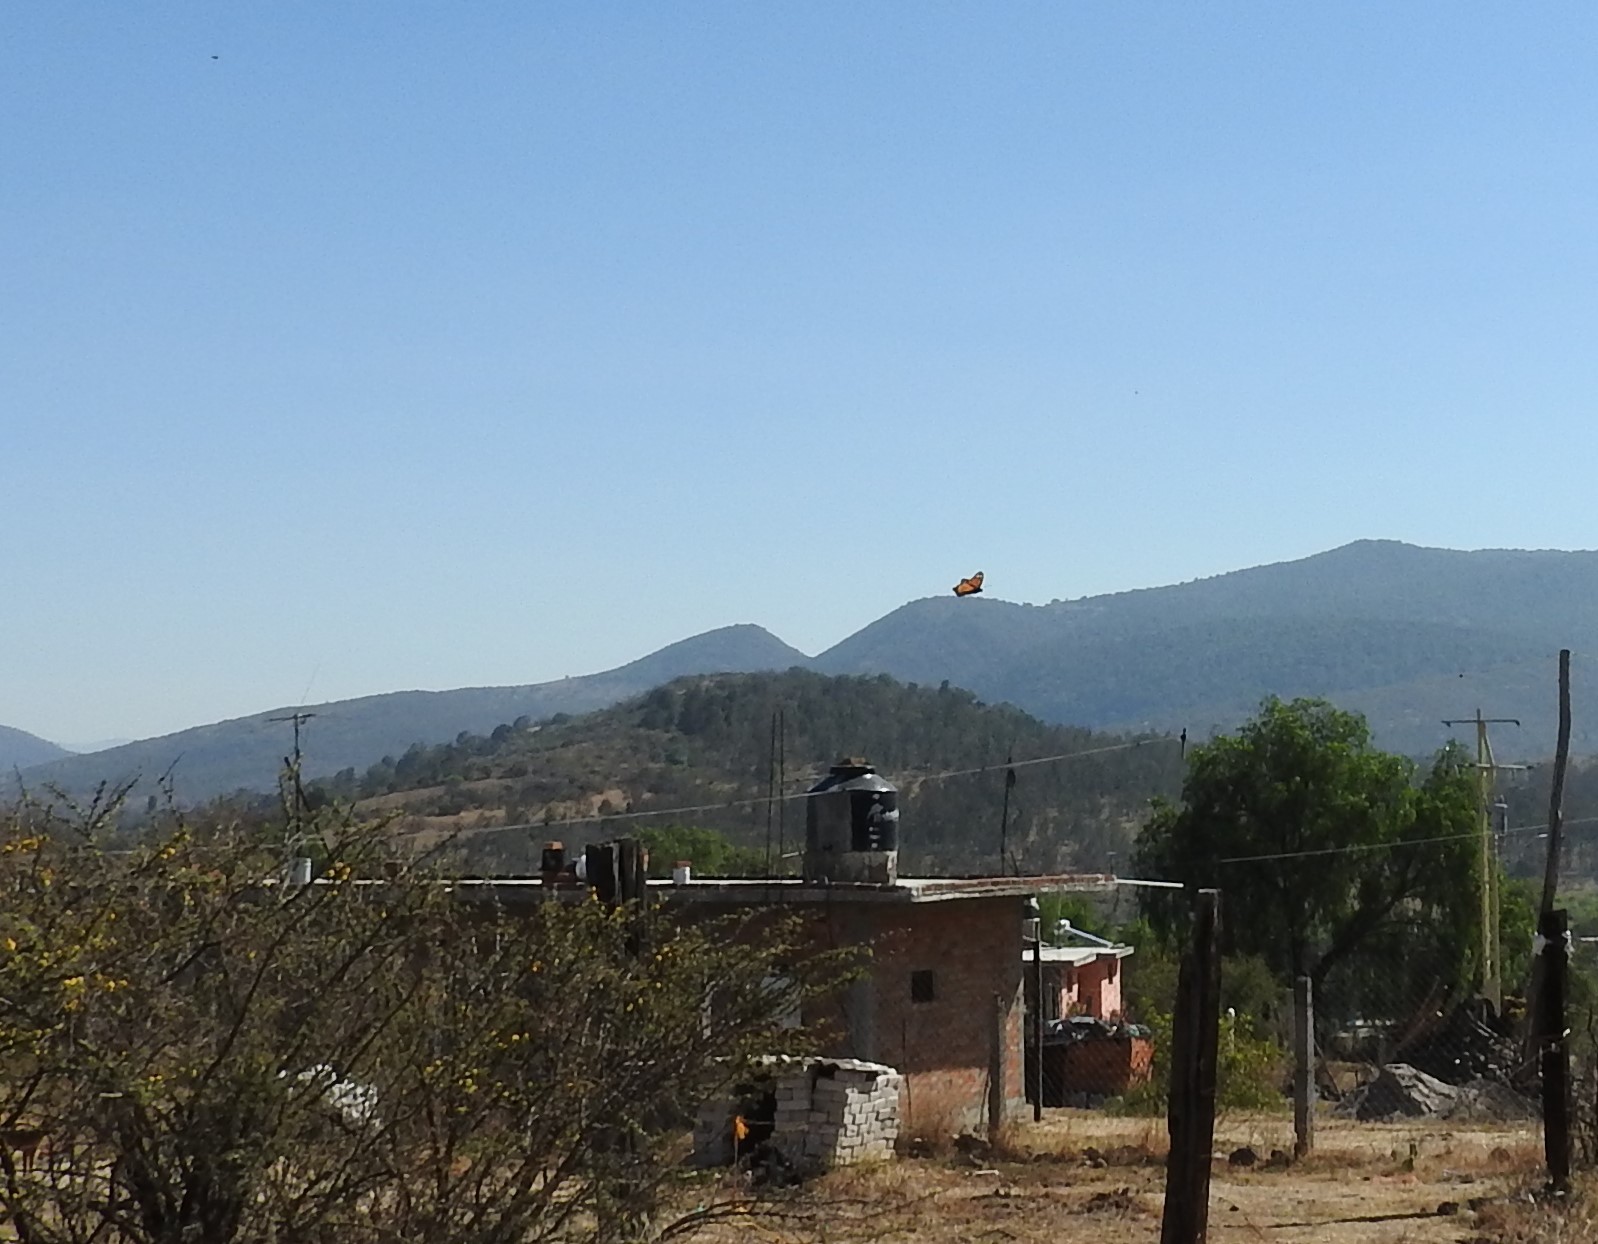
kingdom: Animalia
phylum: Arthropoda
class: Insecta
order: Lepidoptera
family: Nymphalidae
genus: Danaus
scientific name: Danaus plexippus
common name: Monarch
